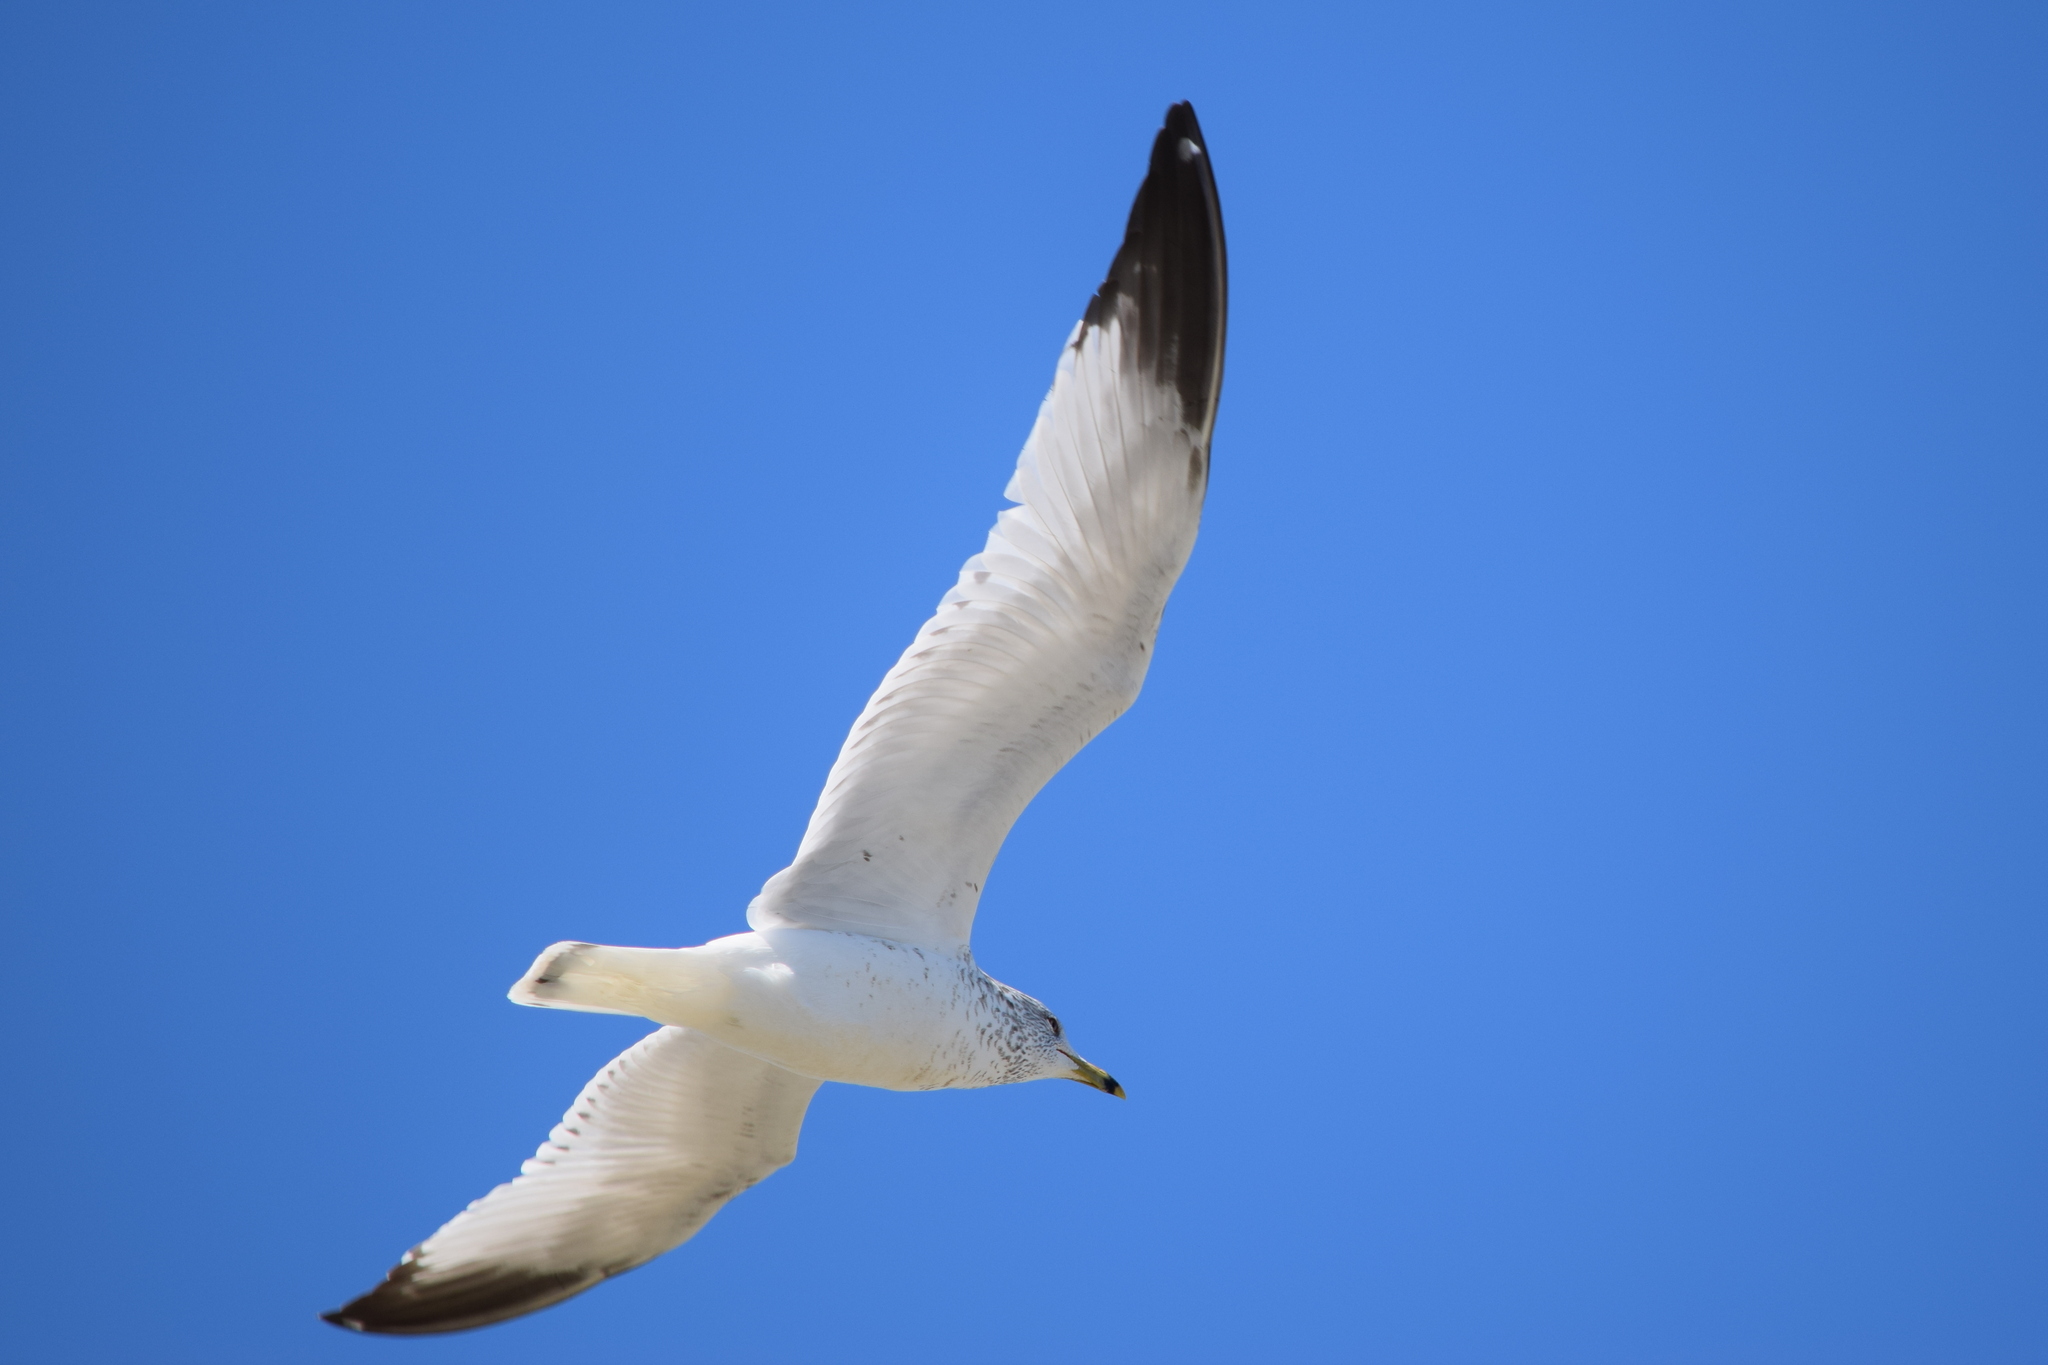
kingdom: Animalia
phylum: Chordata
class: Aves
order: Charadriiformes
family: Laridae
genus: Larus
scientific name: Larus delawarensis
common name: Ring-billed gull
